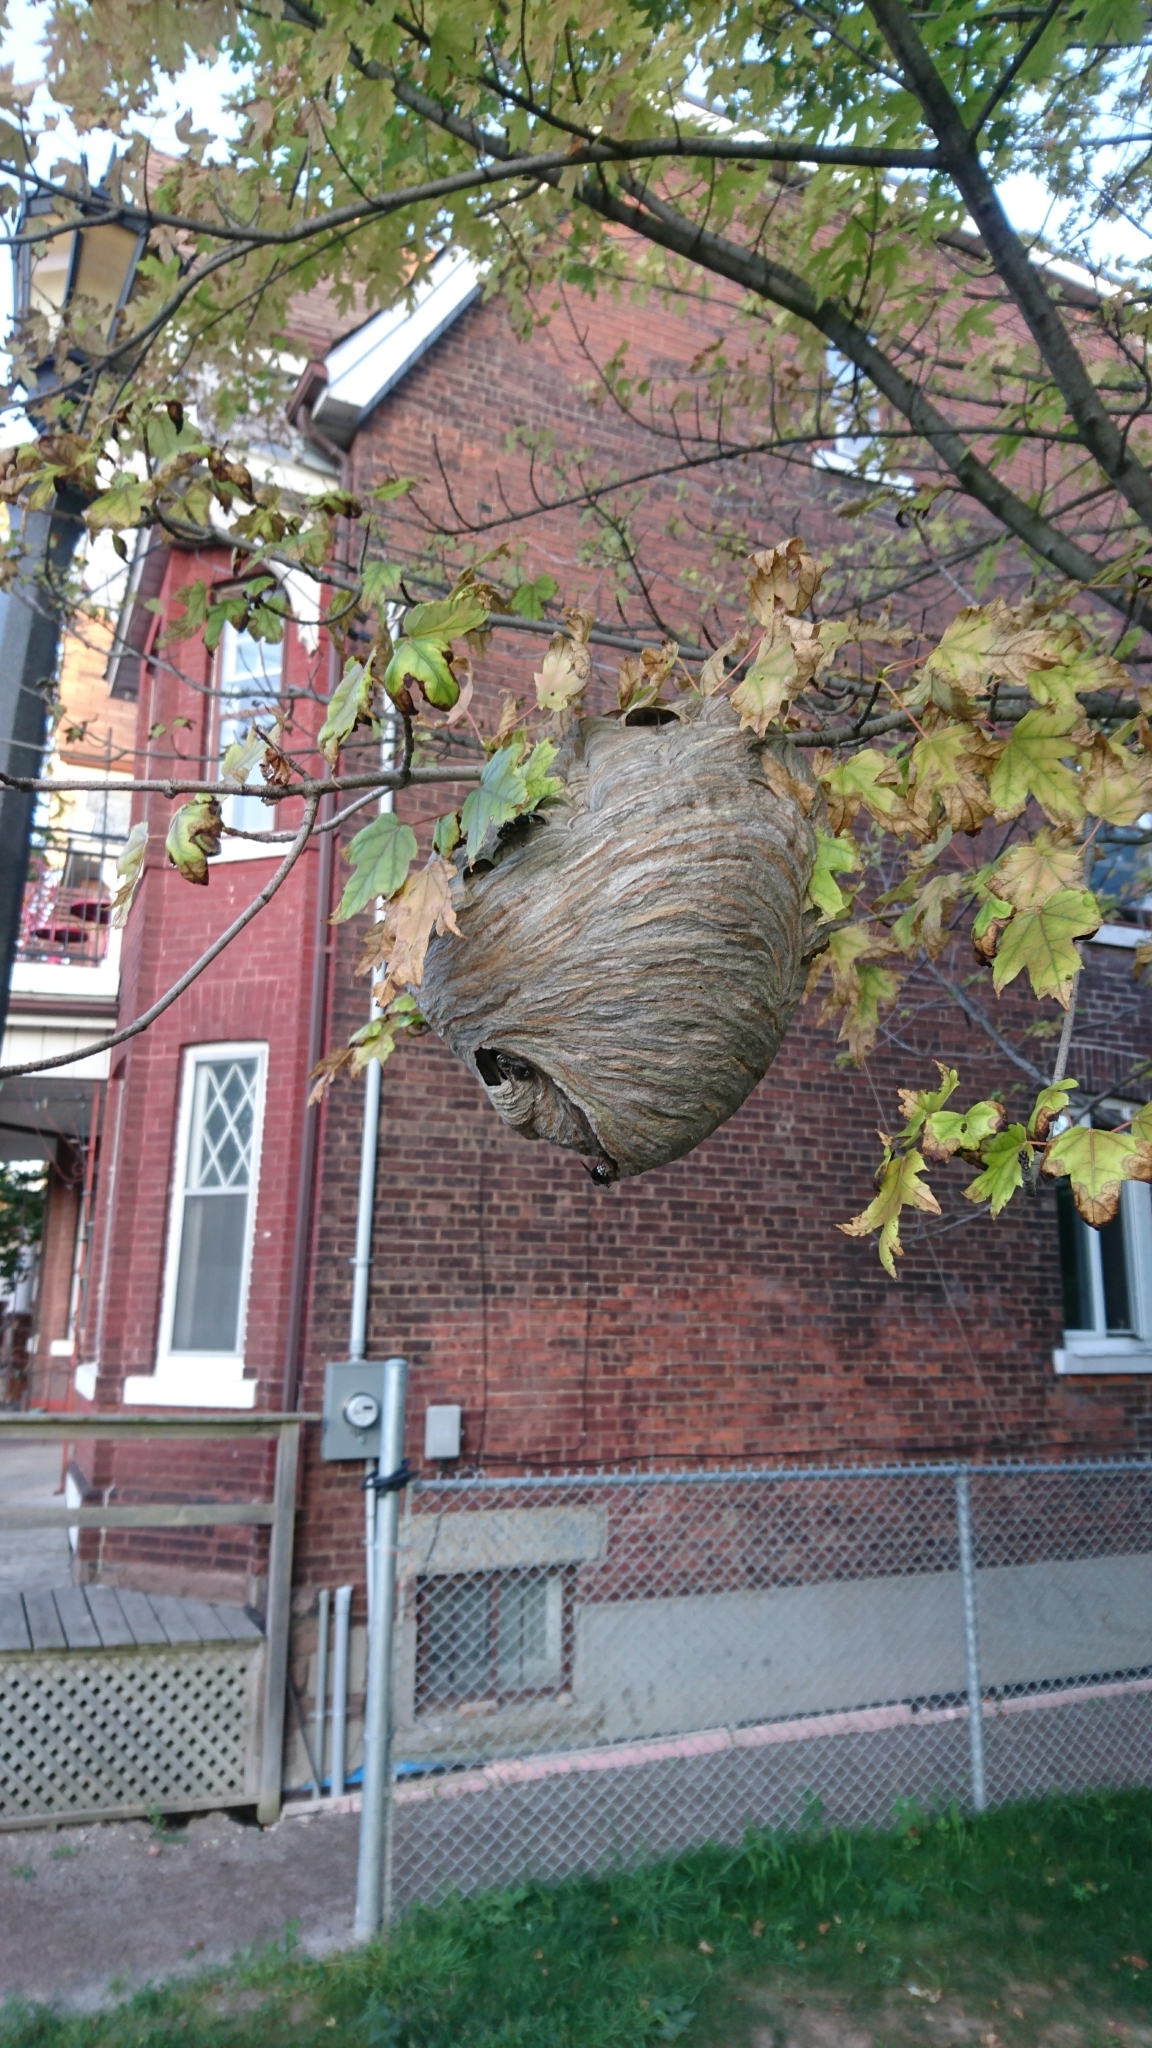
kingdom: Animalia
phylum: Arthropoda
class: Insecta
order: Hymenoptera
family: Vespidae
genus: Dolichovespula
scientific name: Dolichovespula maculata
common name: Bald-faced hornet
